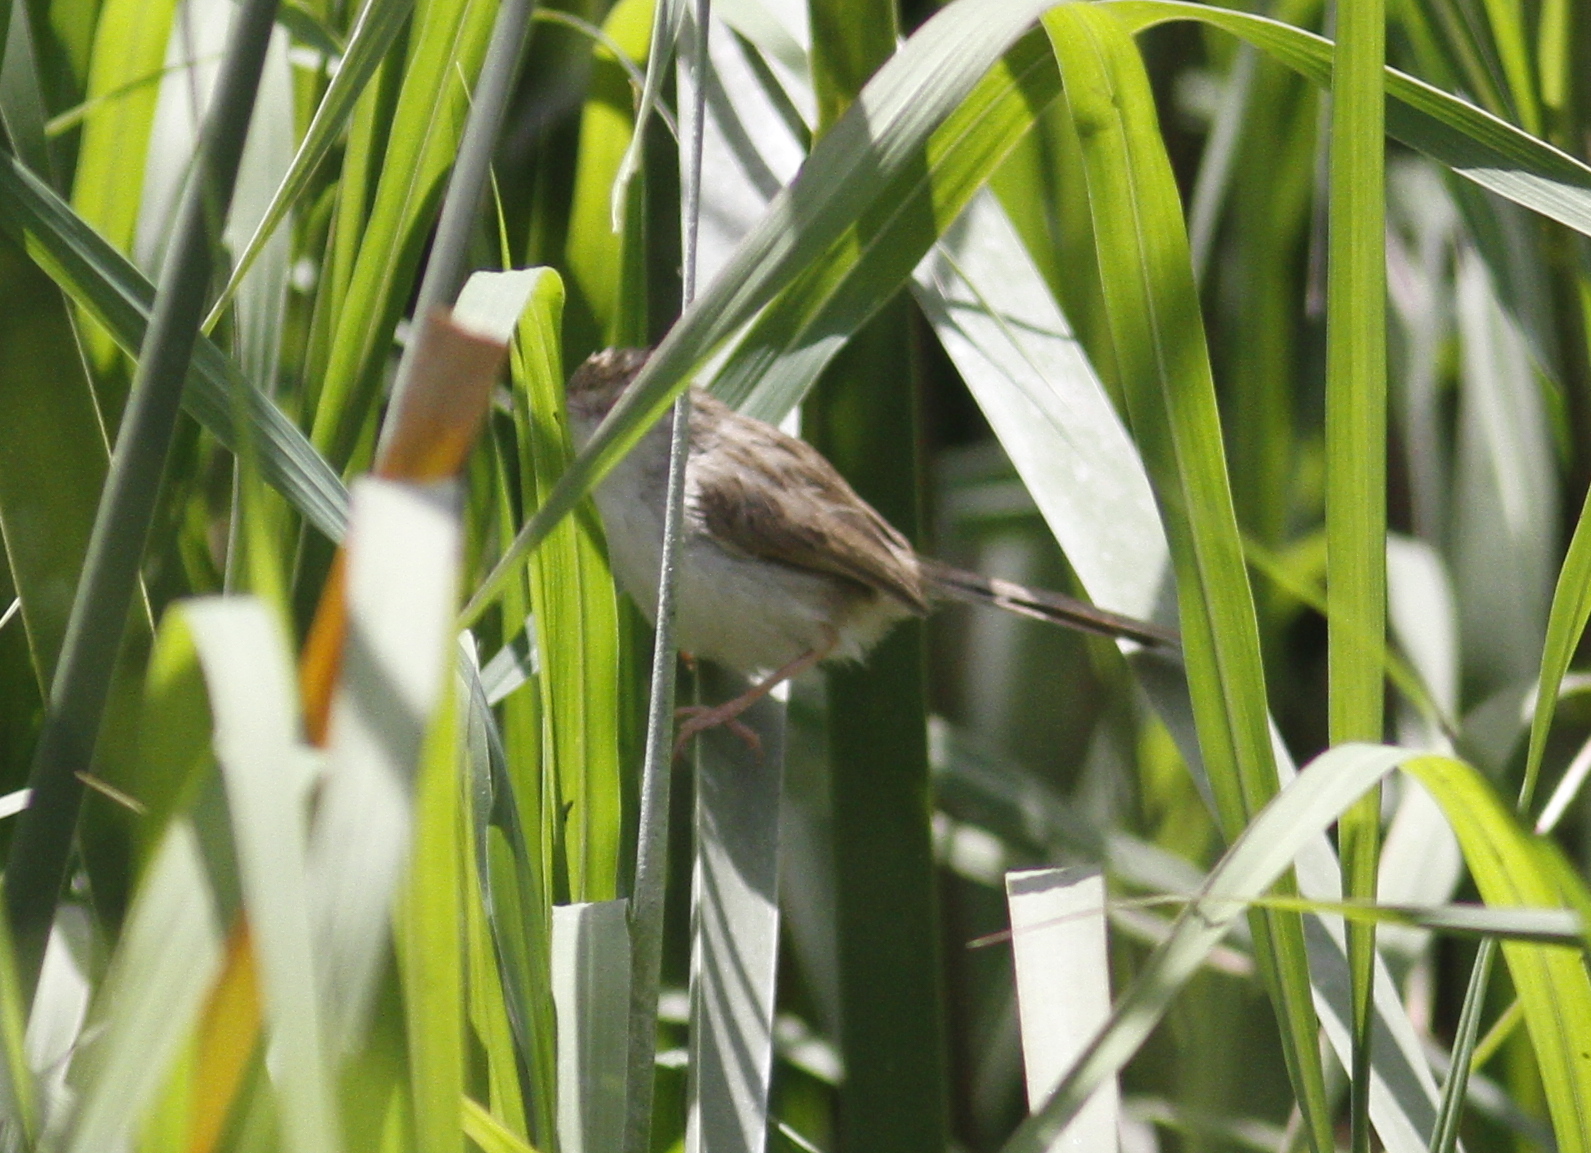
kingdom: Animalia
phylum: Chordata
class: Aves
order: Passeriformes
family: Cisticolidae
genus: Prinia
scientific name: Prinia gracilis
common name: Graceful prinia
